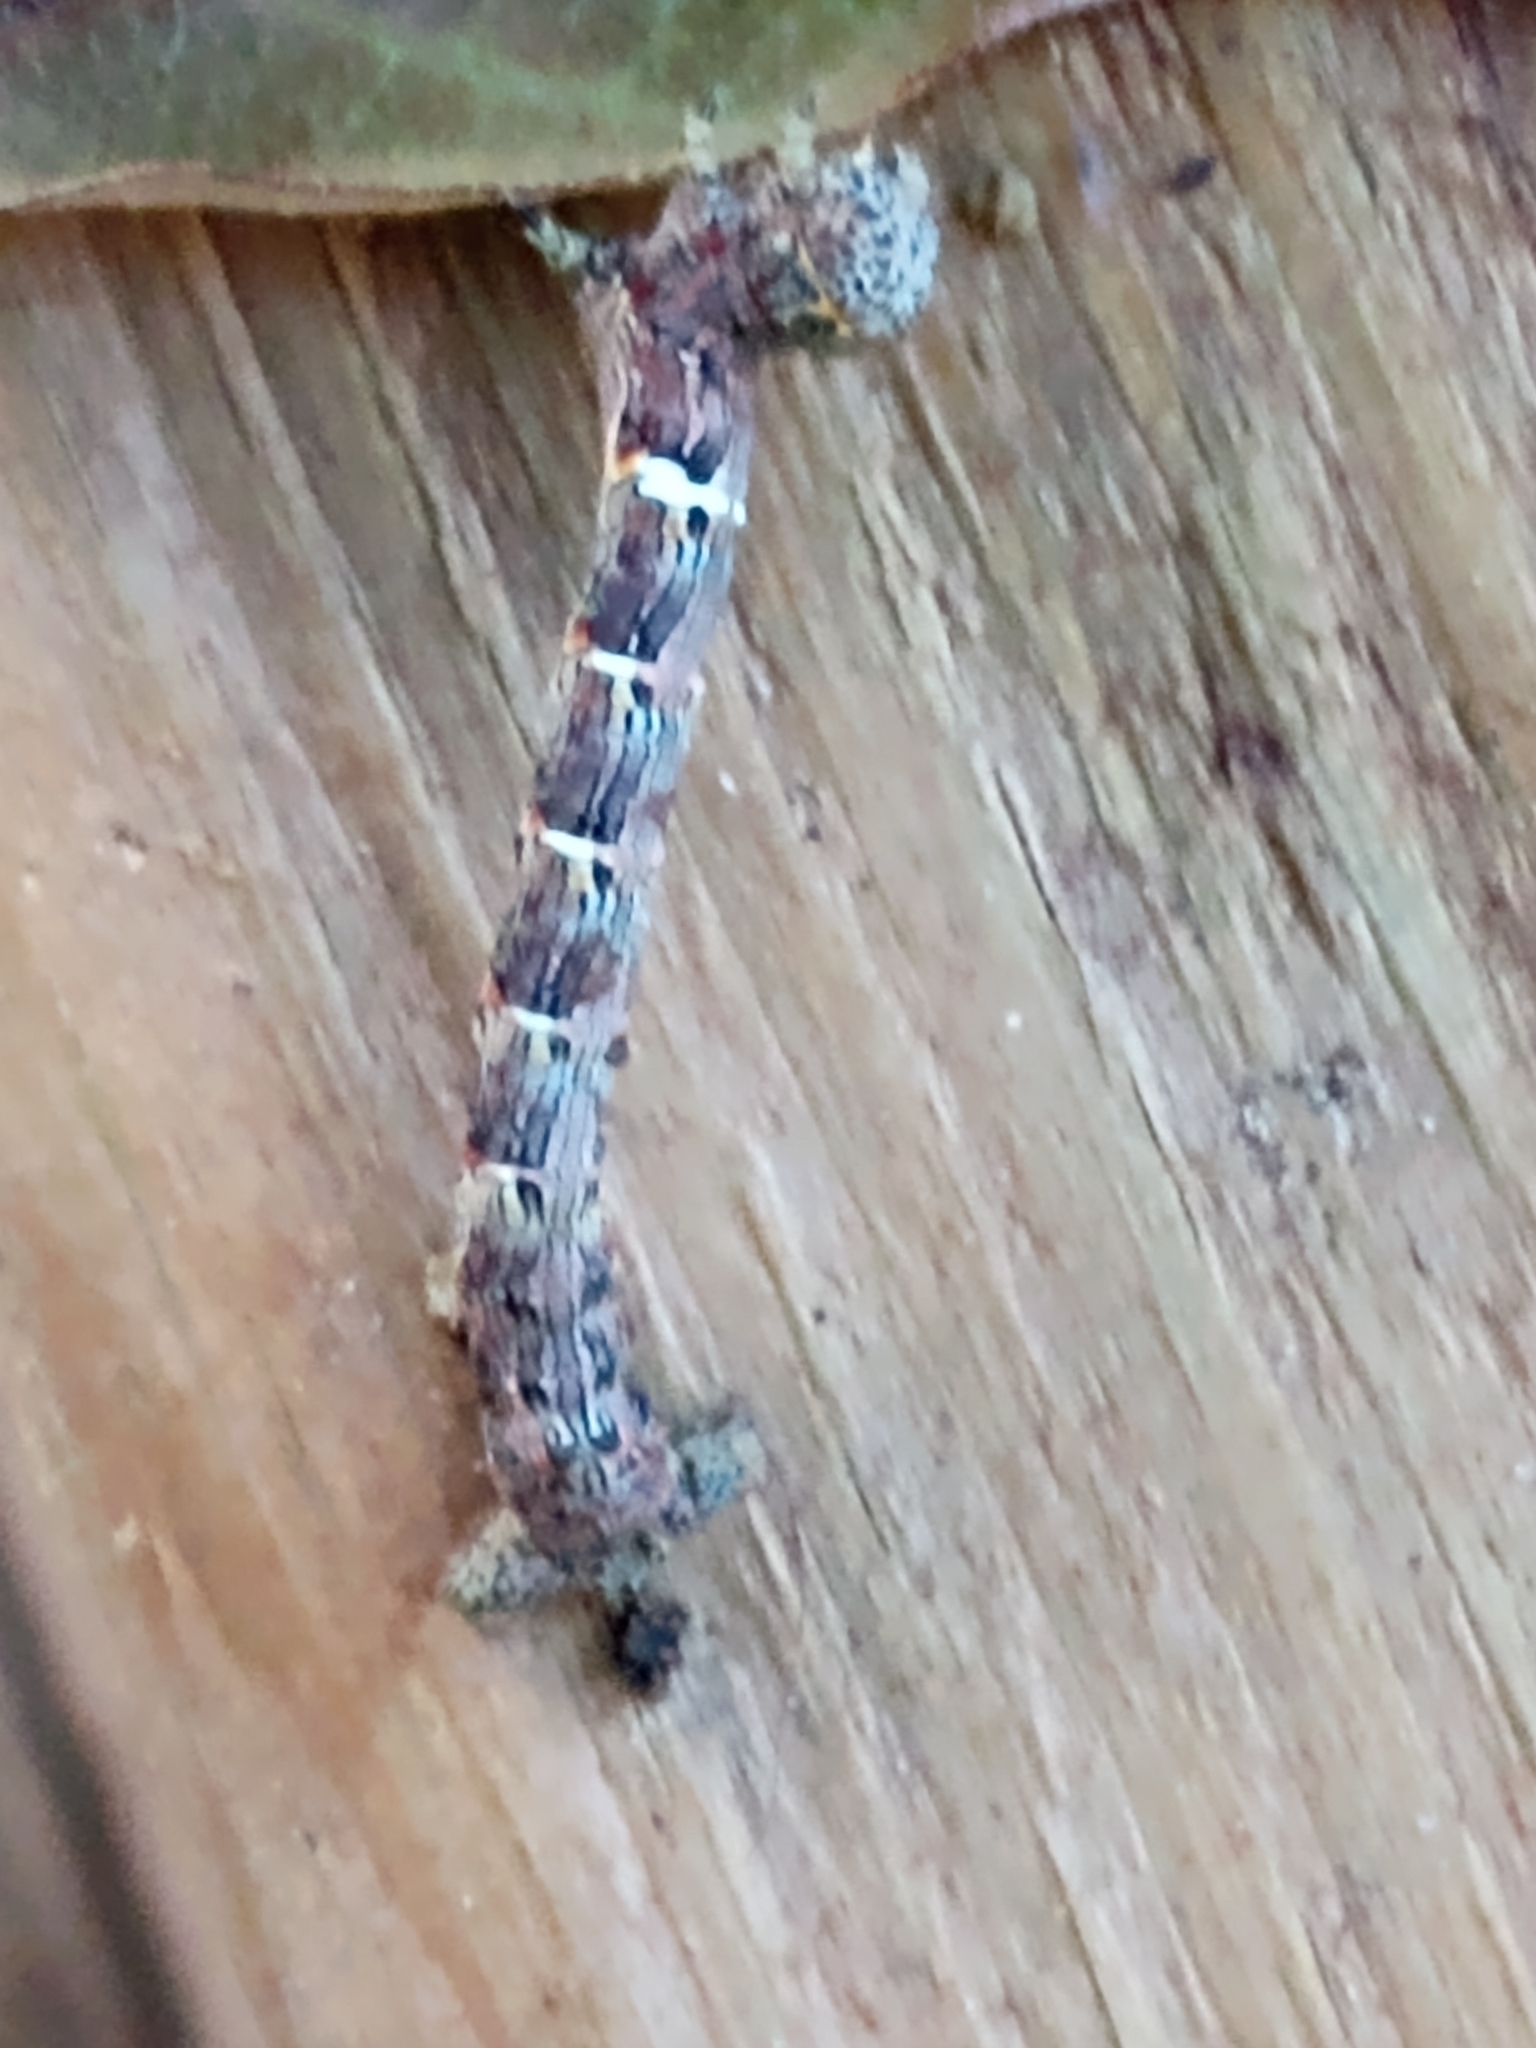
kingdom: Animalia
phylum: Arthropoda
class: Insecta
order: Lepidoptera
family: Geometridae
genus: Lycia
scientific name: Lycia ypsilon
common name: Wooly gray
